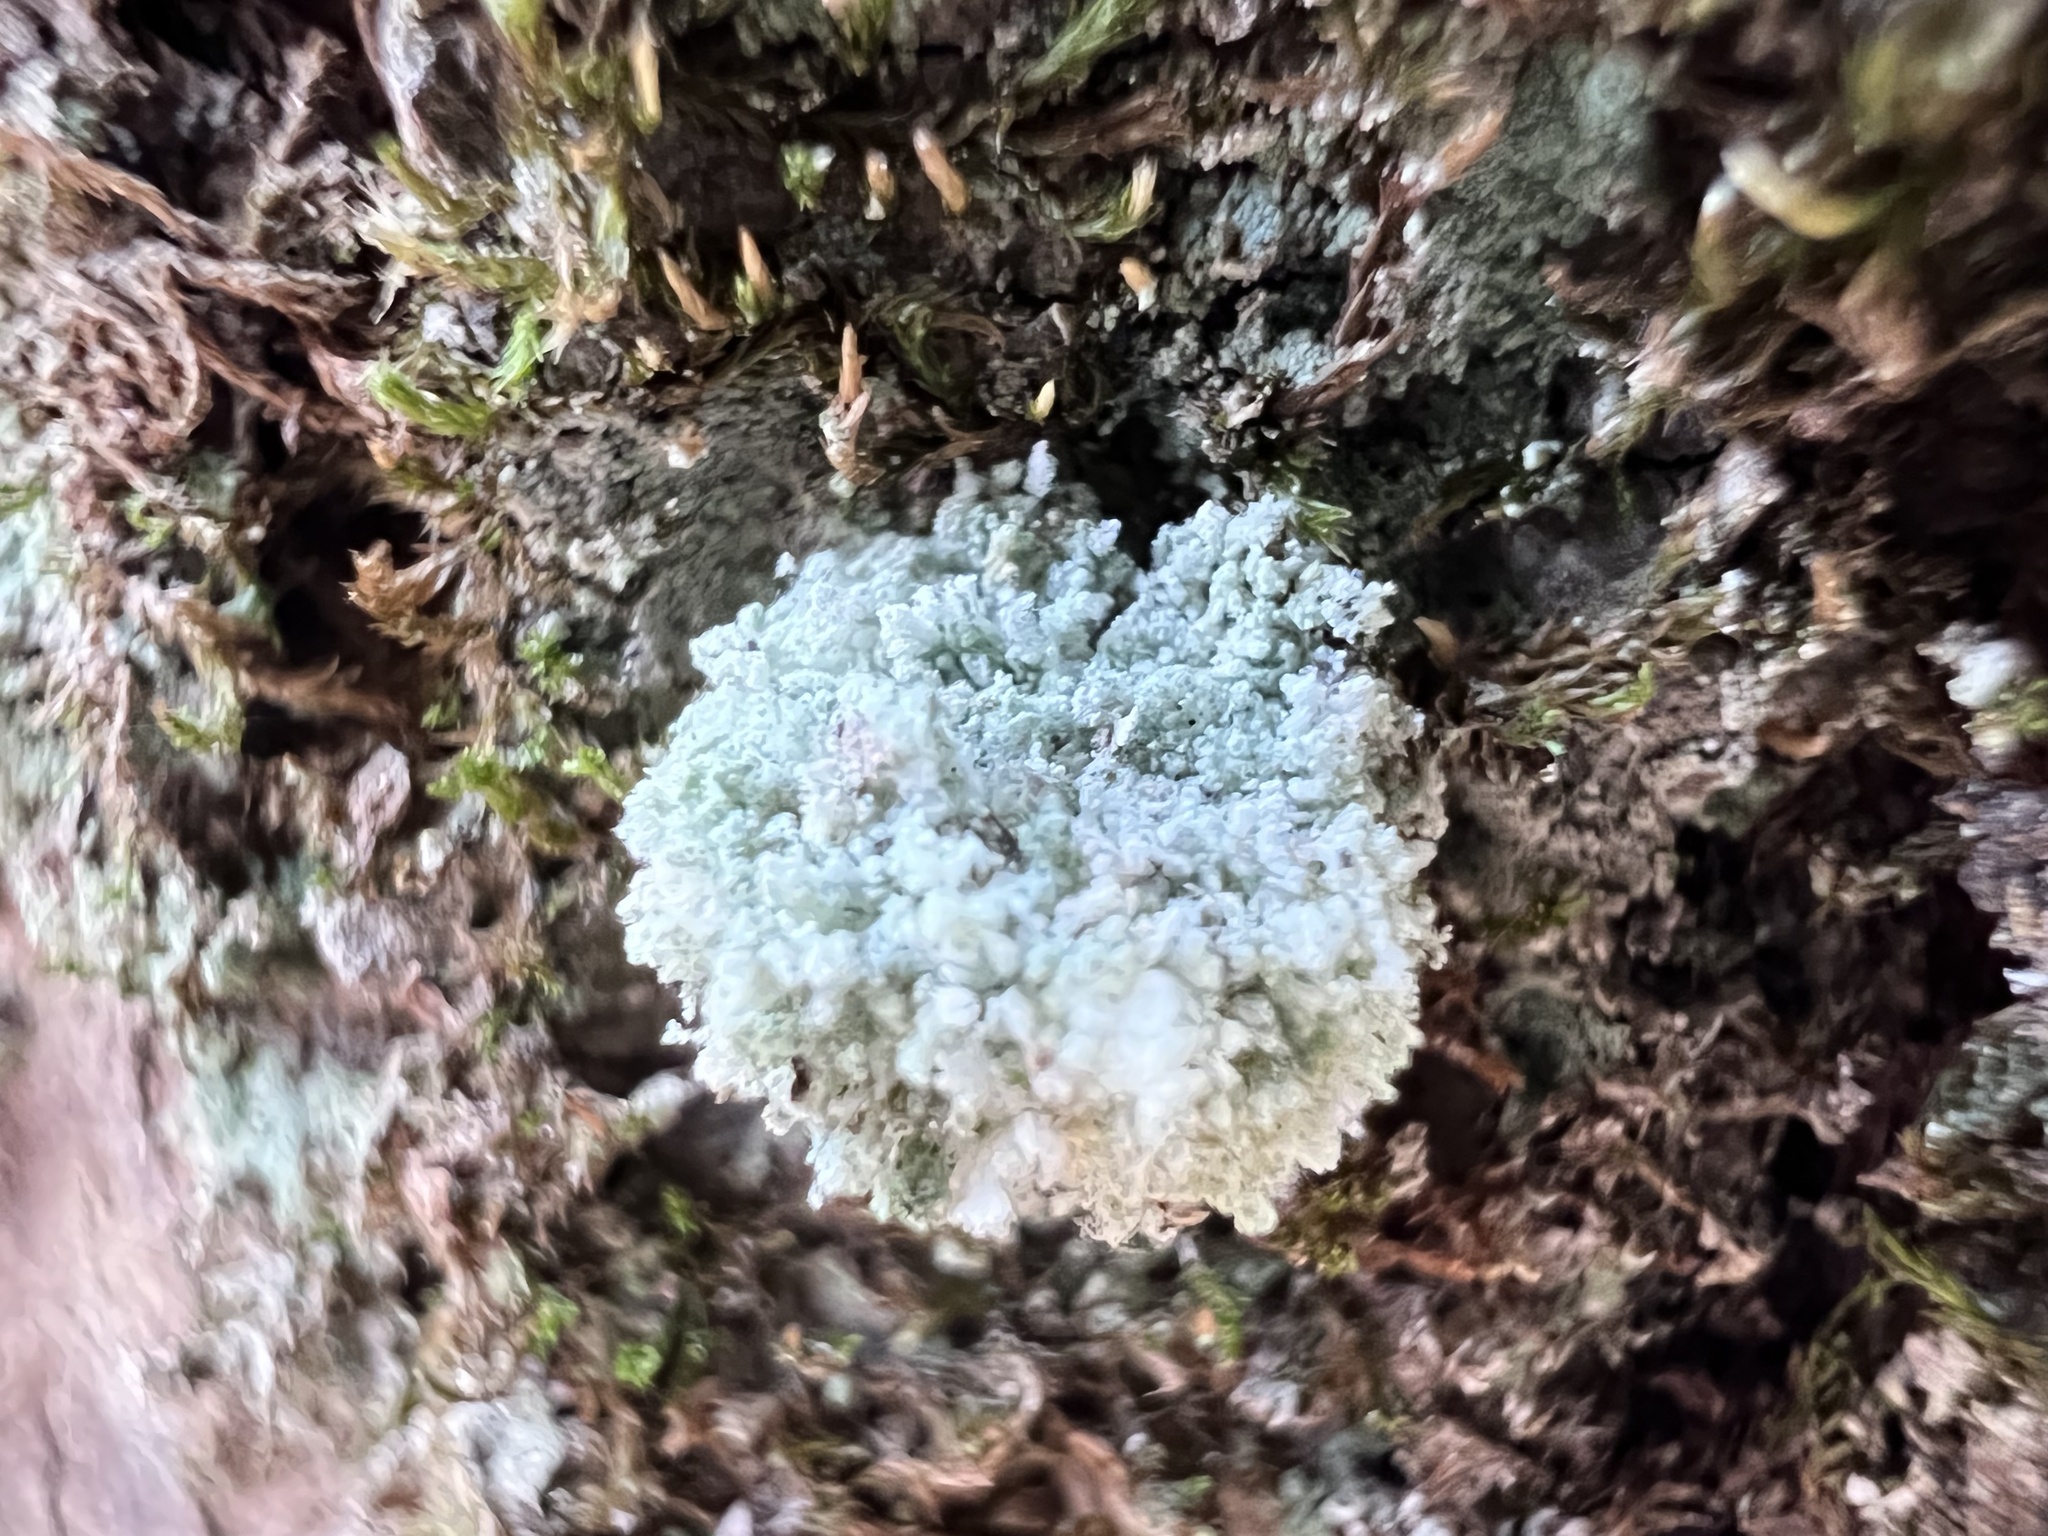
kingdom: Animalia
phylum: Arthropoda
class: Insecta
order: Neuroptera
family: Chrysopidae
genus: Leucochrysa
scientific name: Leucochrysa pavida
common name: Lichen-carrying green lacewing
